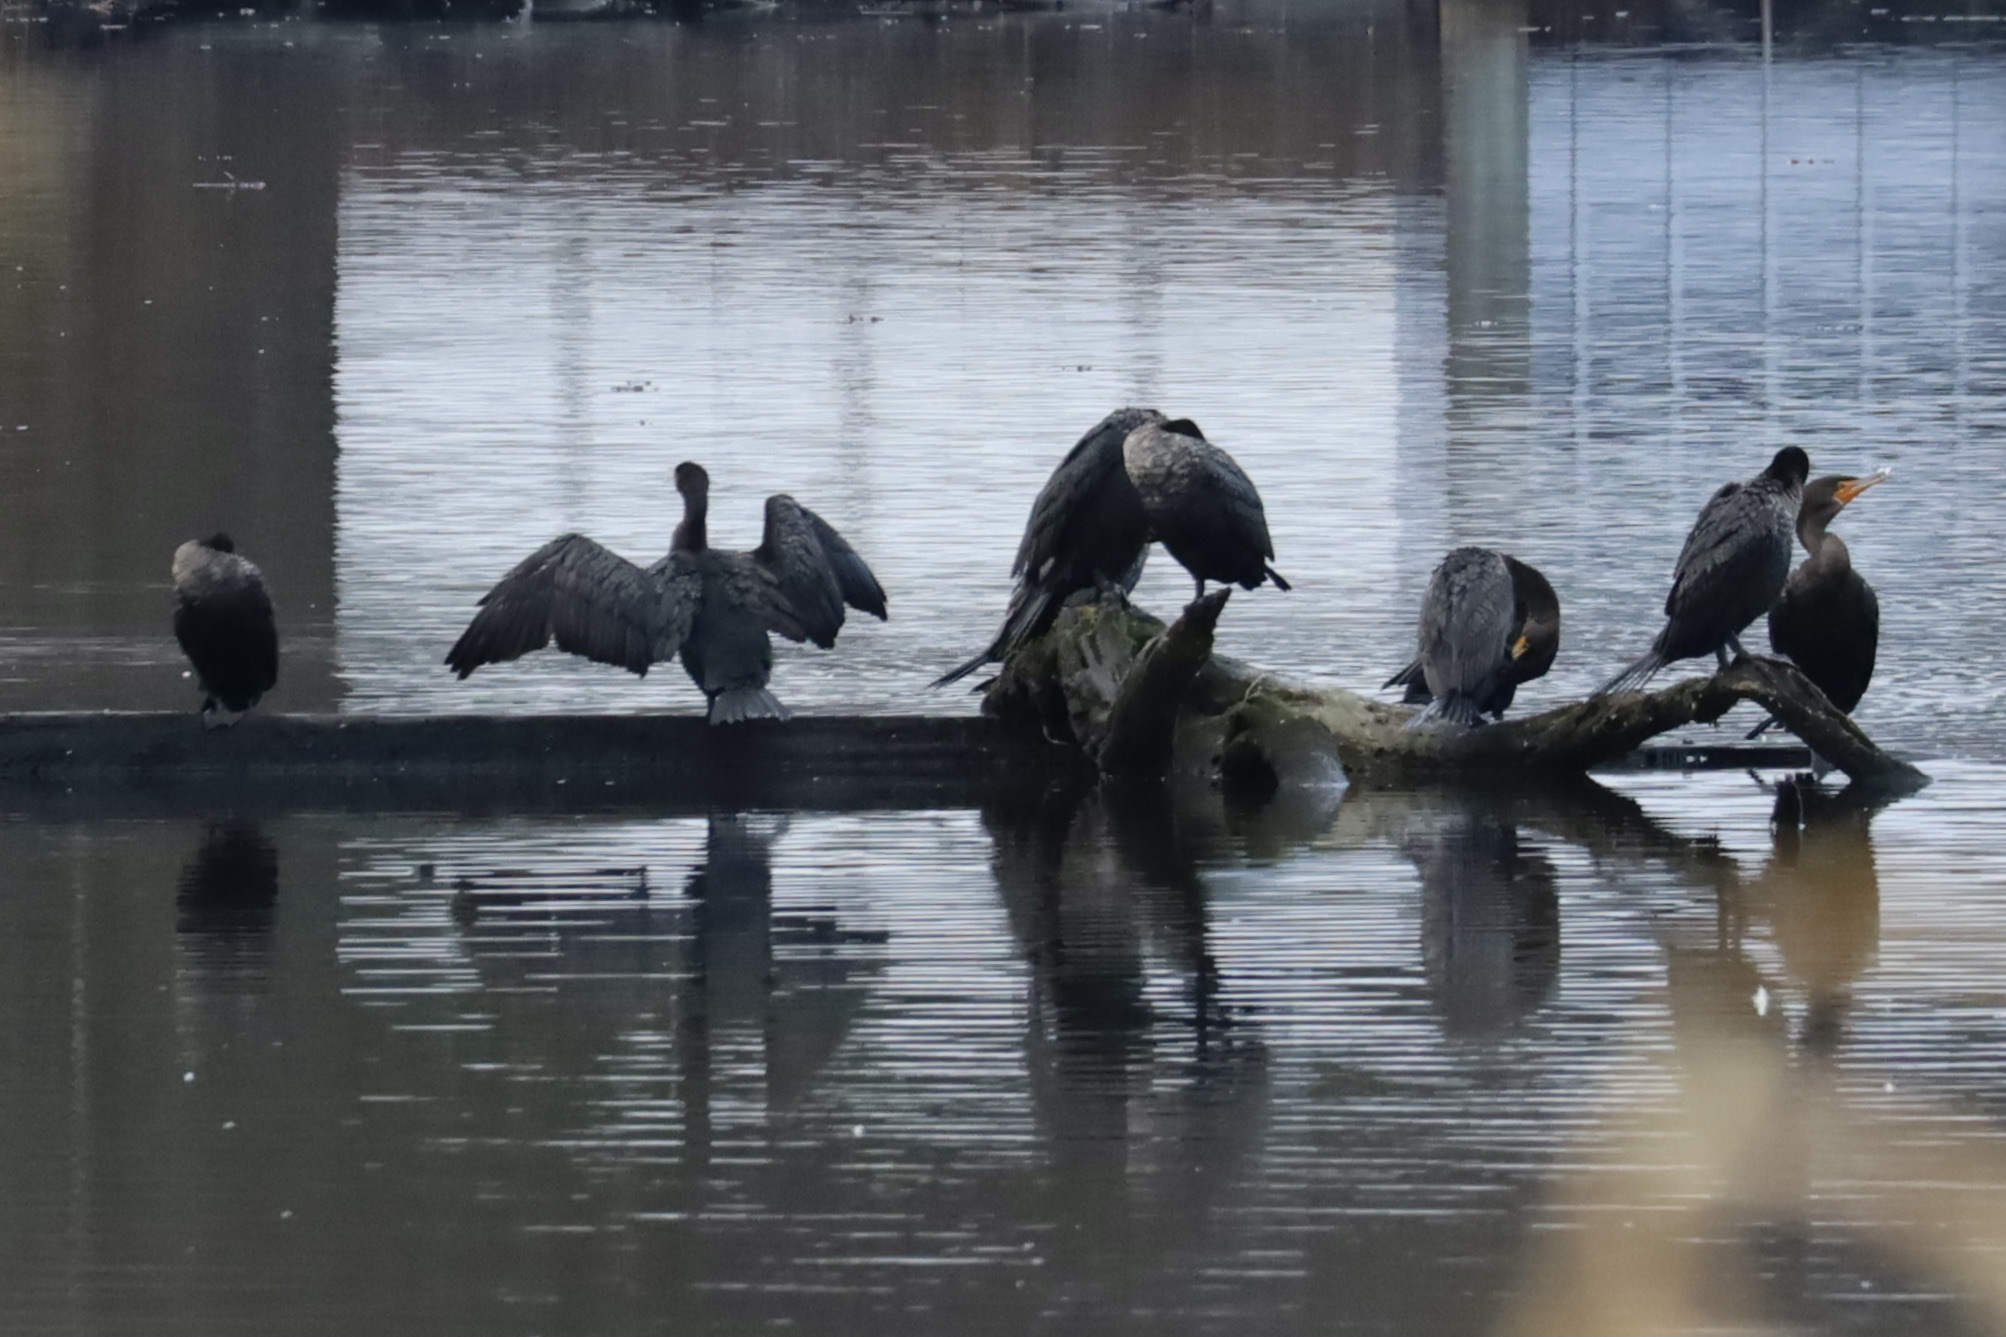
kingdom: Animalia
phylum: Chordata
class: Aves
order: Suliformes
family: Phalacrocoracidae
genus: Phalacrocorax
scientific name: Phalacrocorax auritus
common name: Double-crested cormorant
